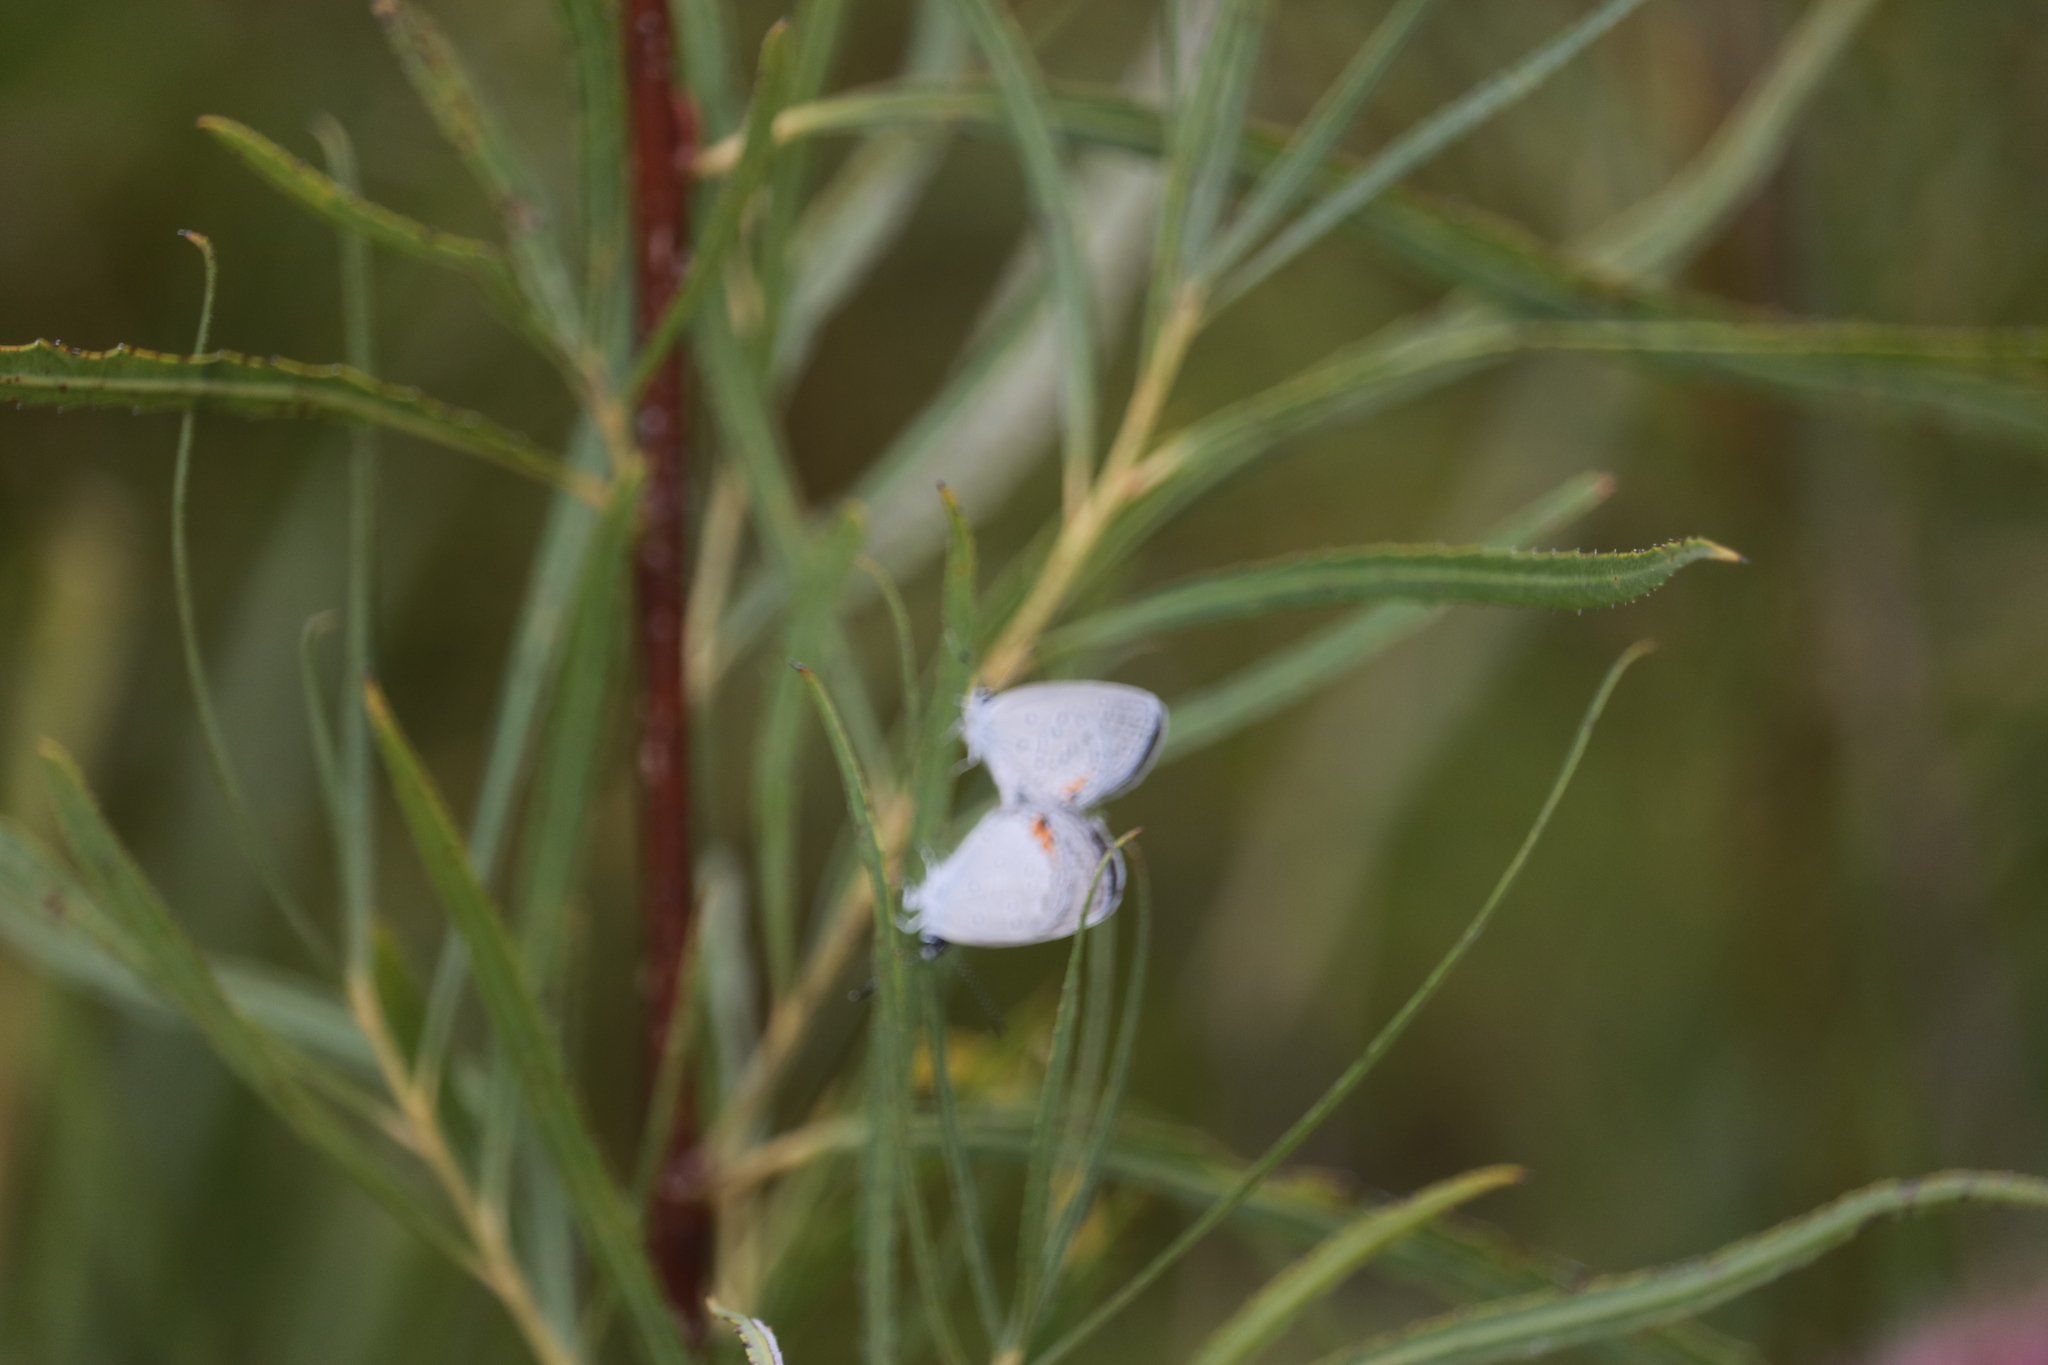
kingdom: Animalia
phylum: Arthropoda
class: Insecta
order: Lepidoptera
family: Lycaenidae
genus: Elkalyce
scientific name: Elkalyce comyntas
